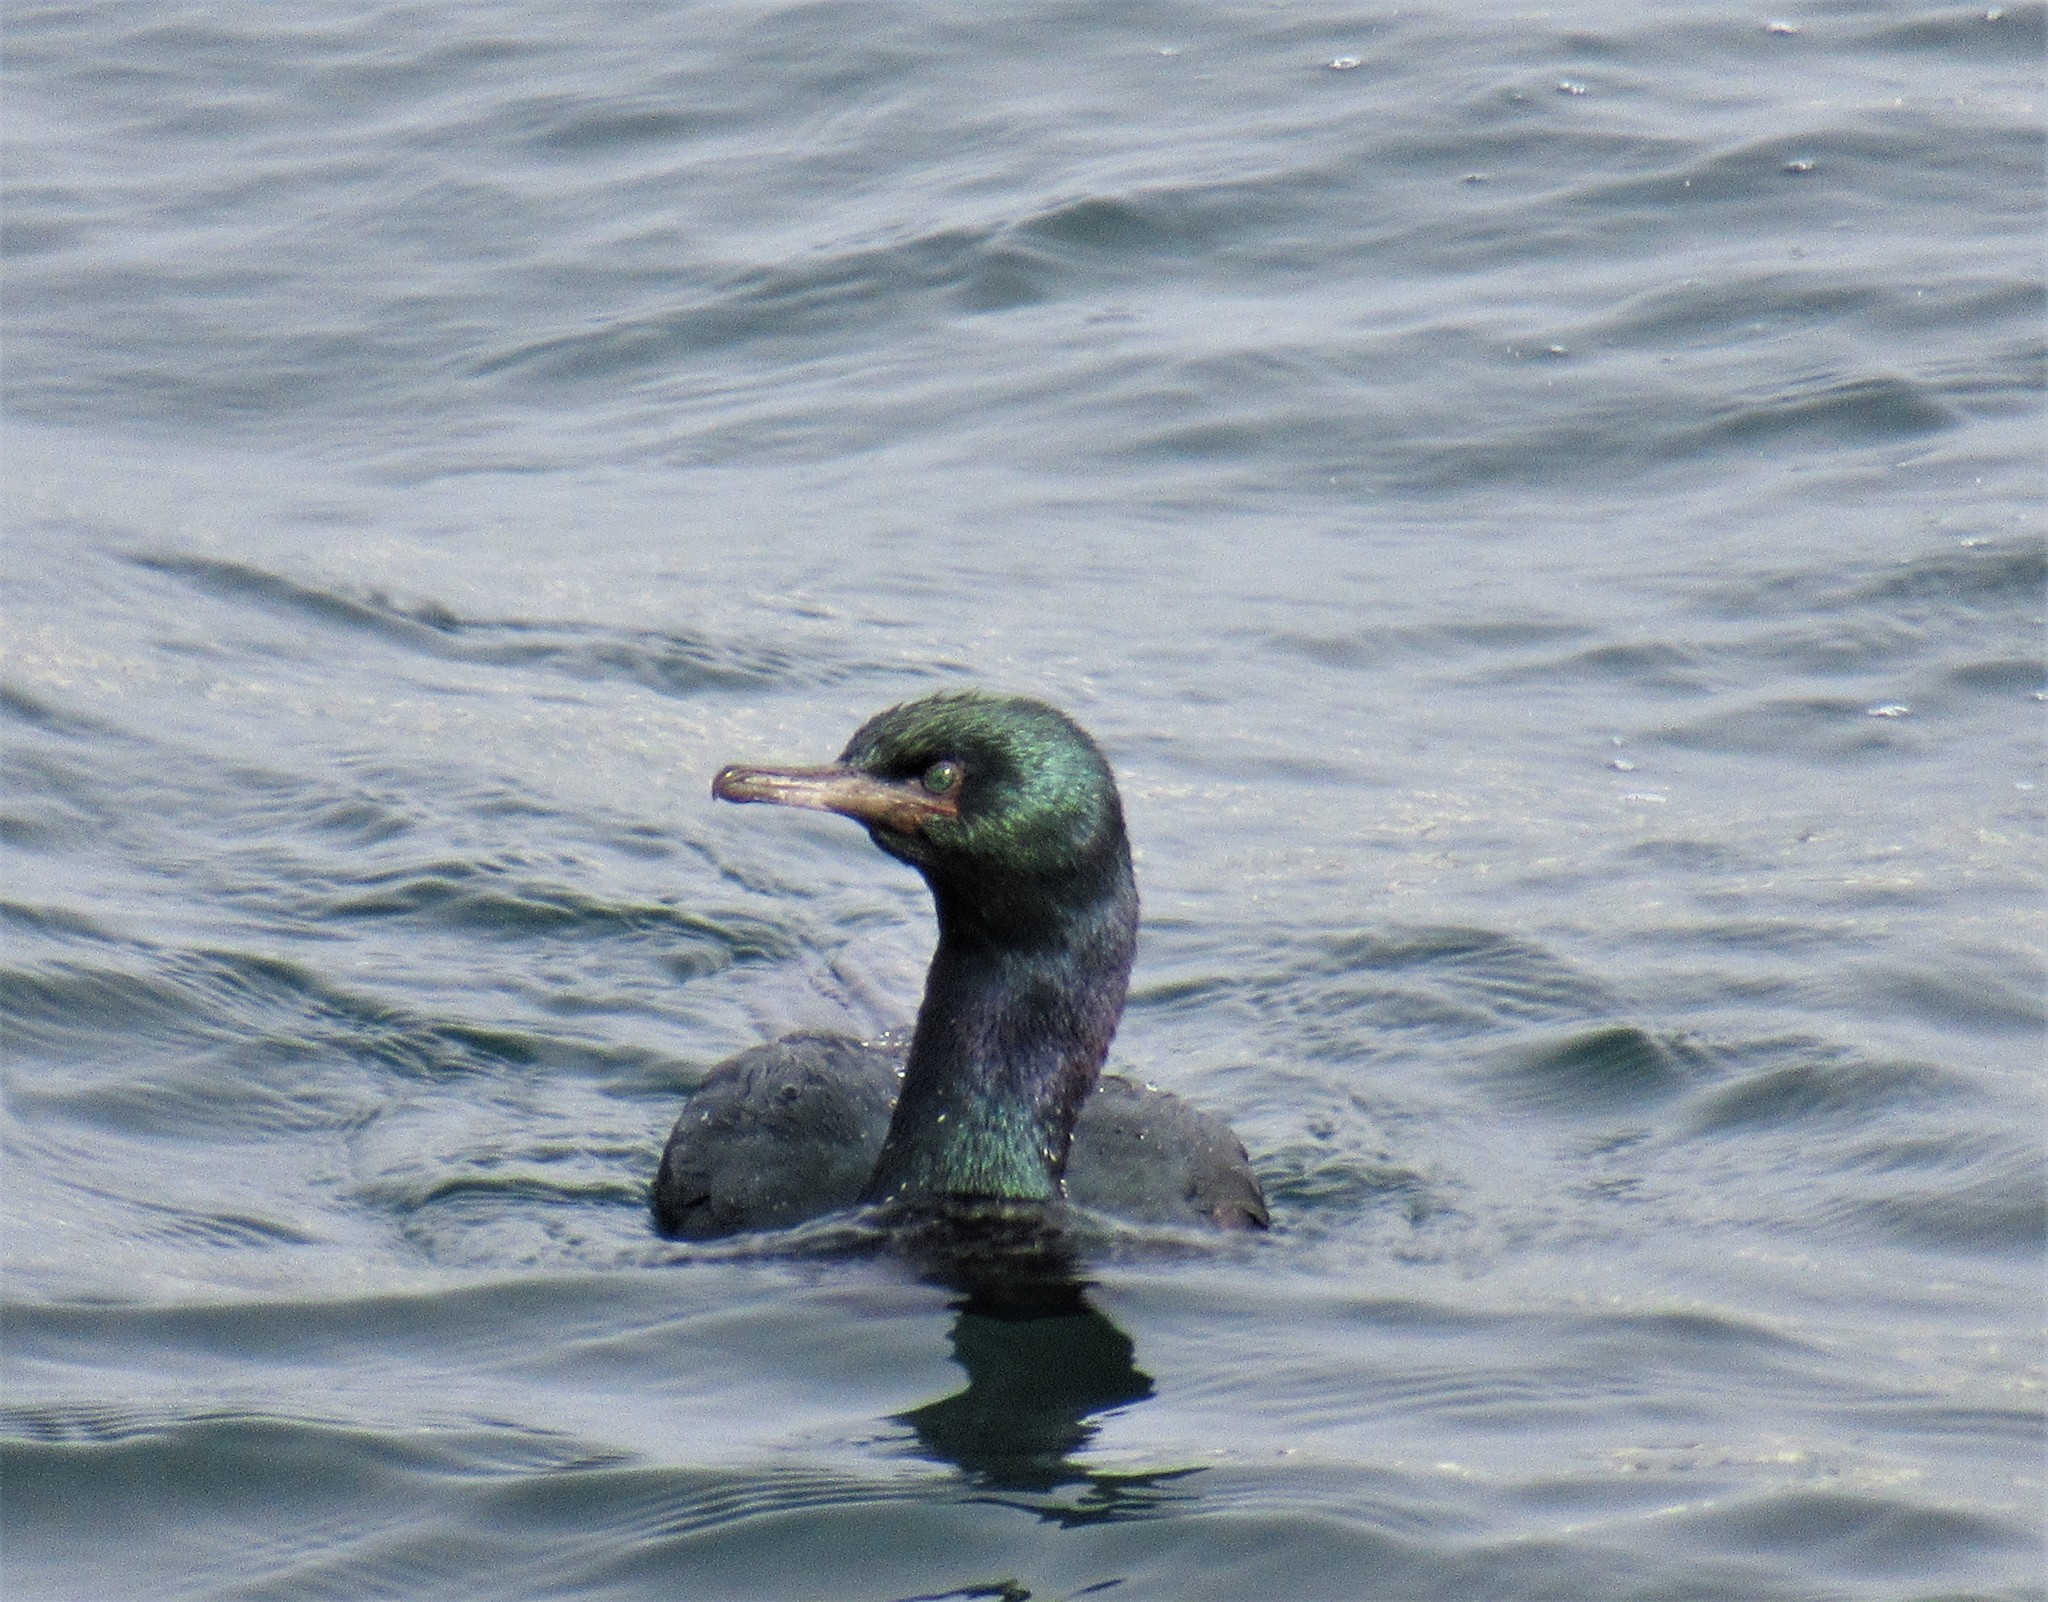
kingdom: Animalia
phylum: Chordata
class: Aves
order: Suliformes
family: Phalacrocoracidae
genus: Phalacrocorax
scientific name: Phalacrocorax pelagicus
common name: Pelagic cormorant
